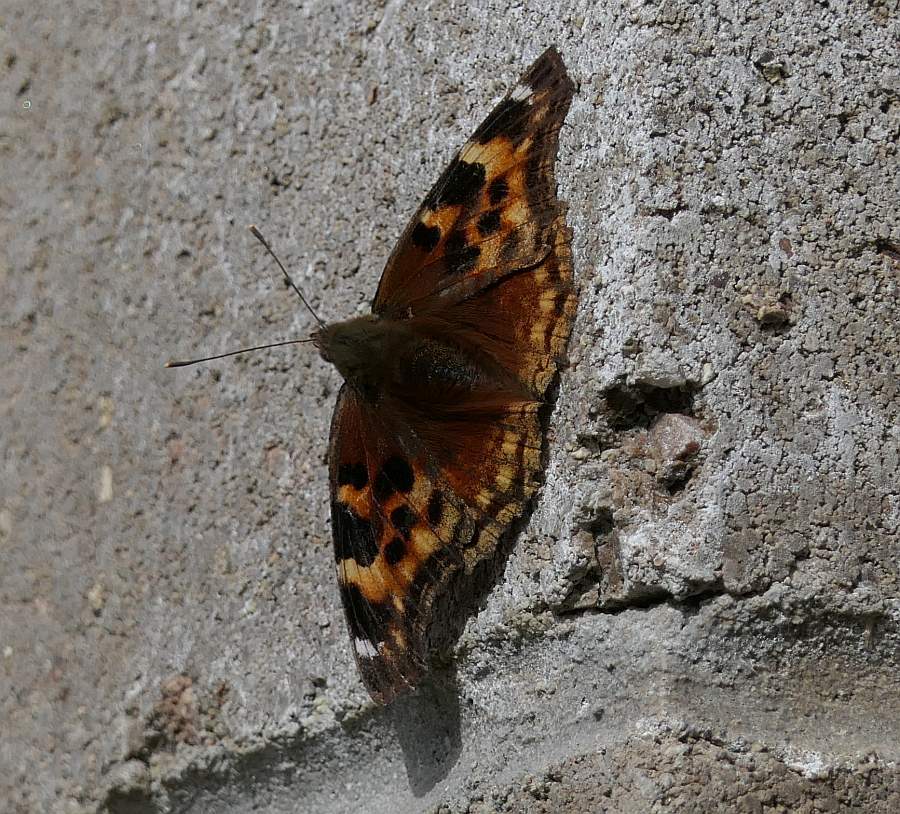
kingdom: Animalia
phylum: Arthropoda
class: Insecta
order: Lepidoptera
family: Nymphalidae
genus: Polygonia
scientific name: Polygonia vaualbum
